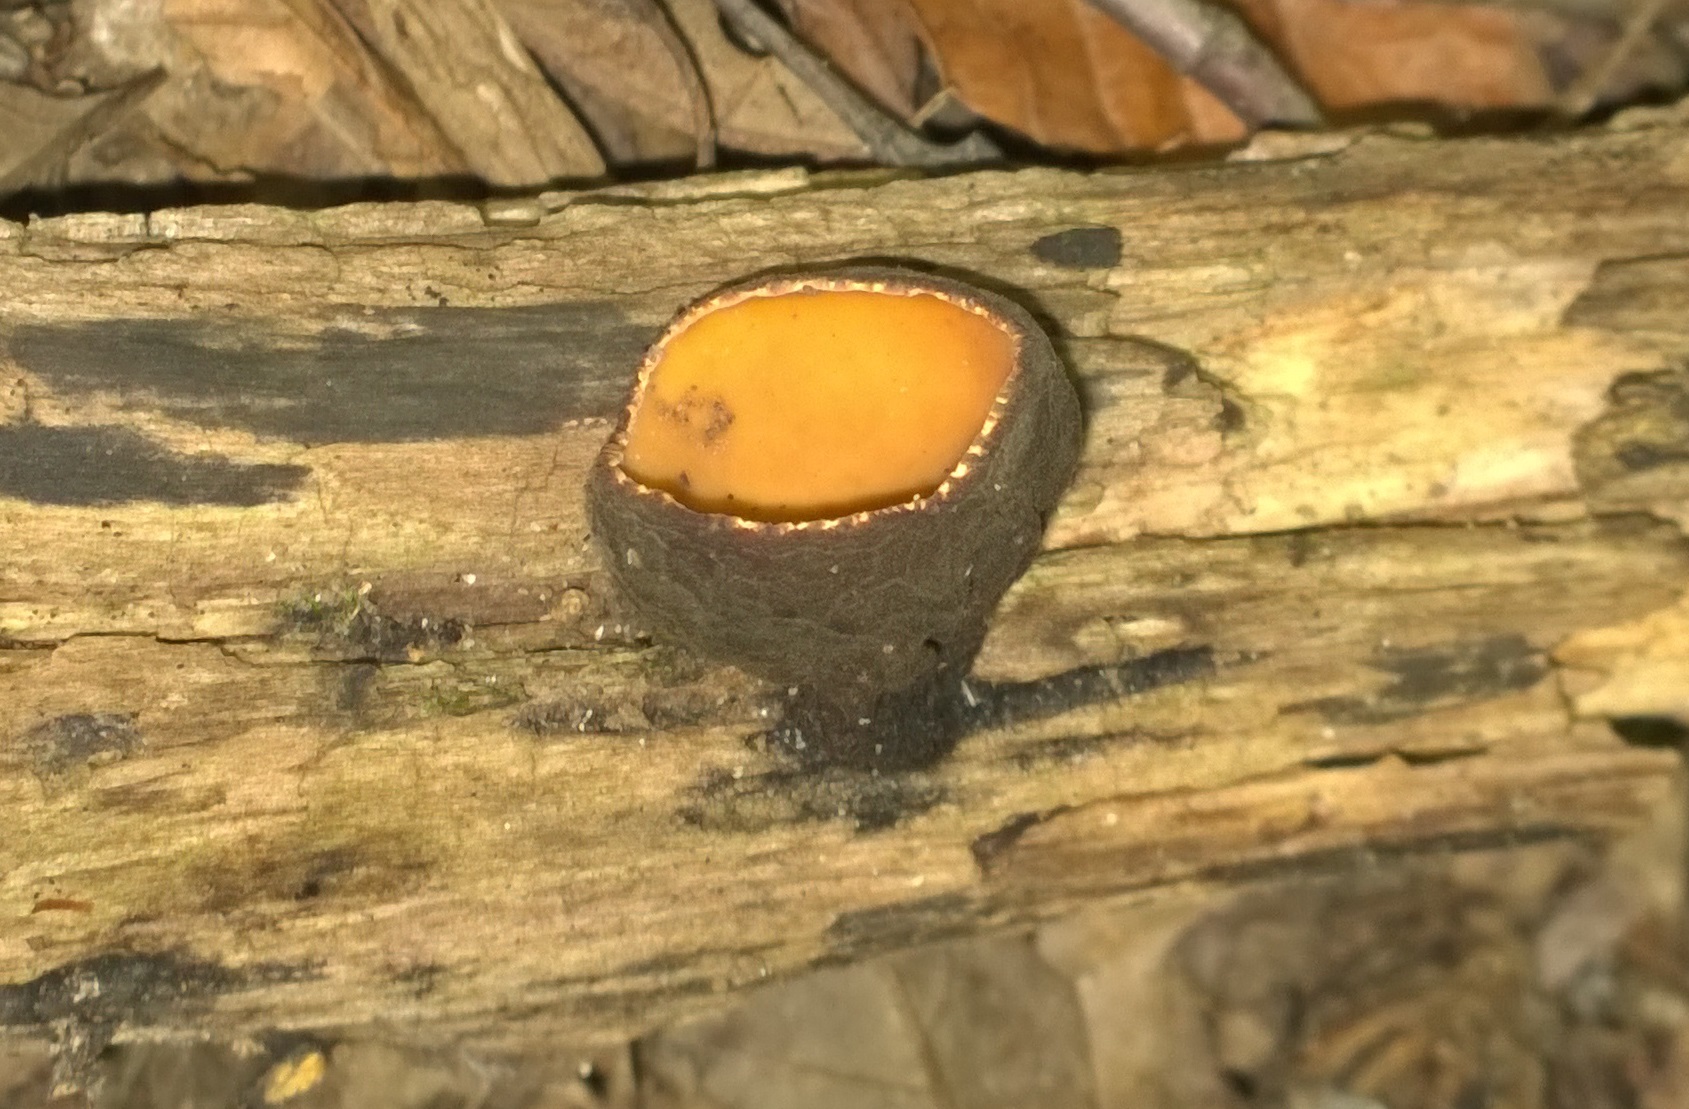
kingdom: Fungi
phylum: Ascomycota
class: Pezizomycetes
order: Pezizales
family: Sarcosomataceae
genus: Galiella
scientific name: Galiella rufa
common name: Hairy rubber cup
